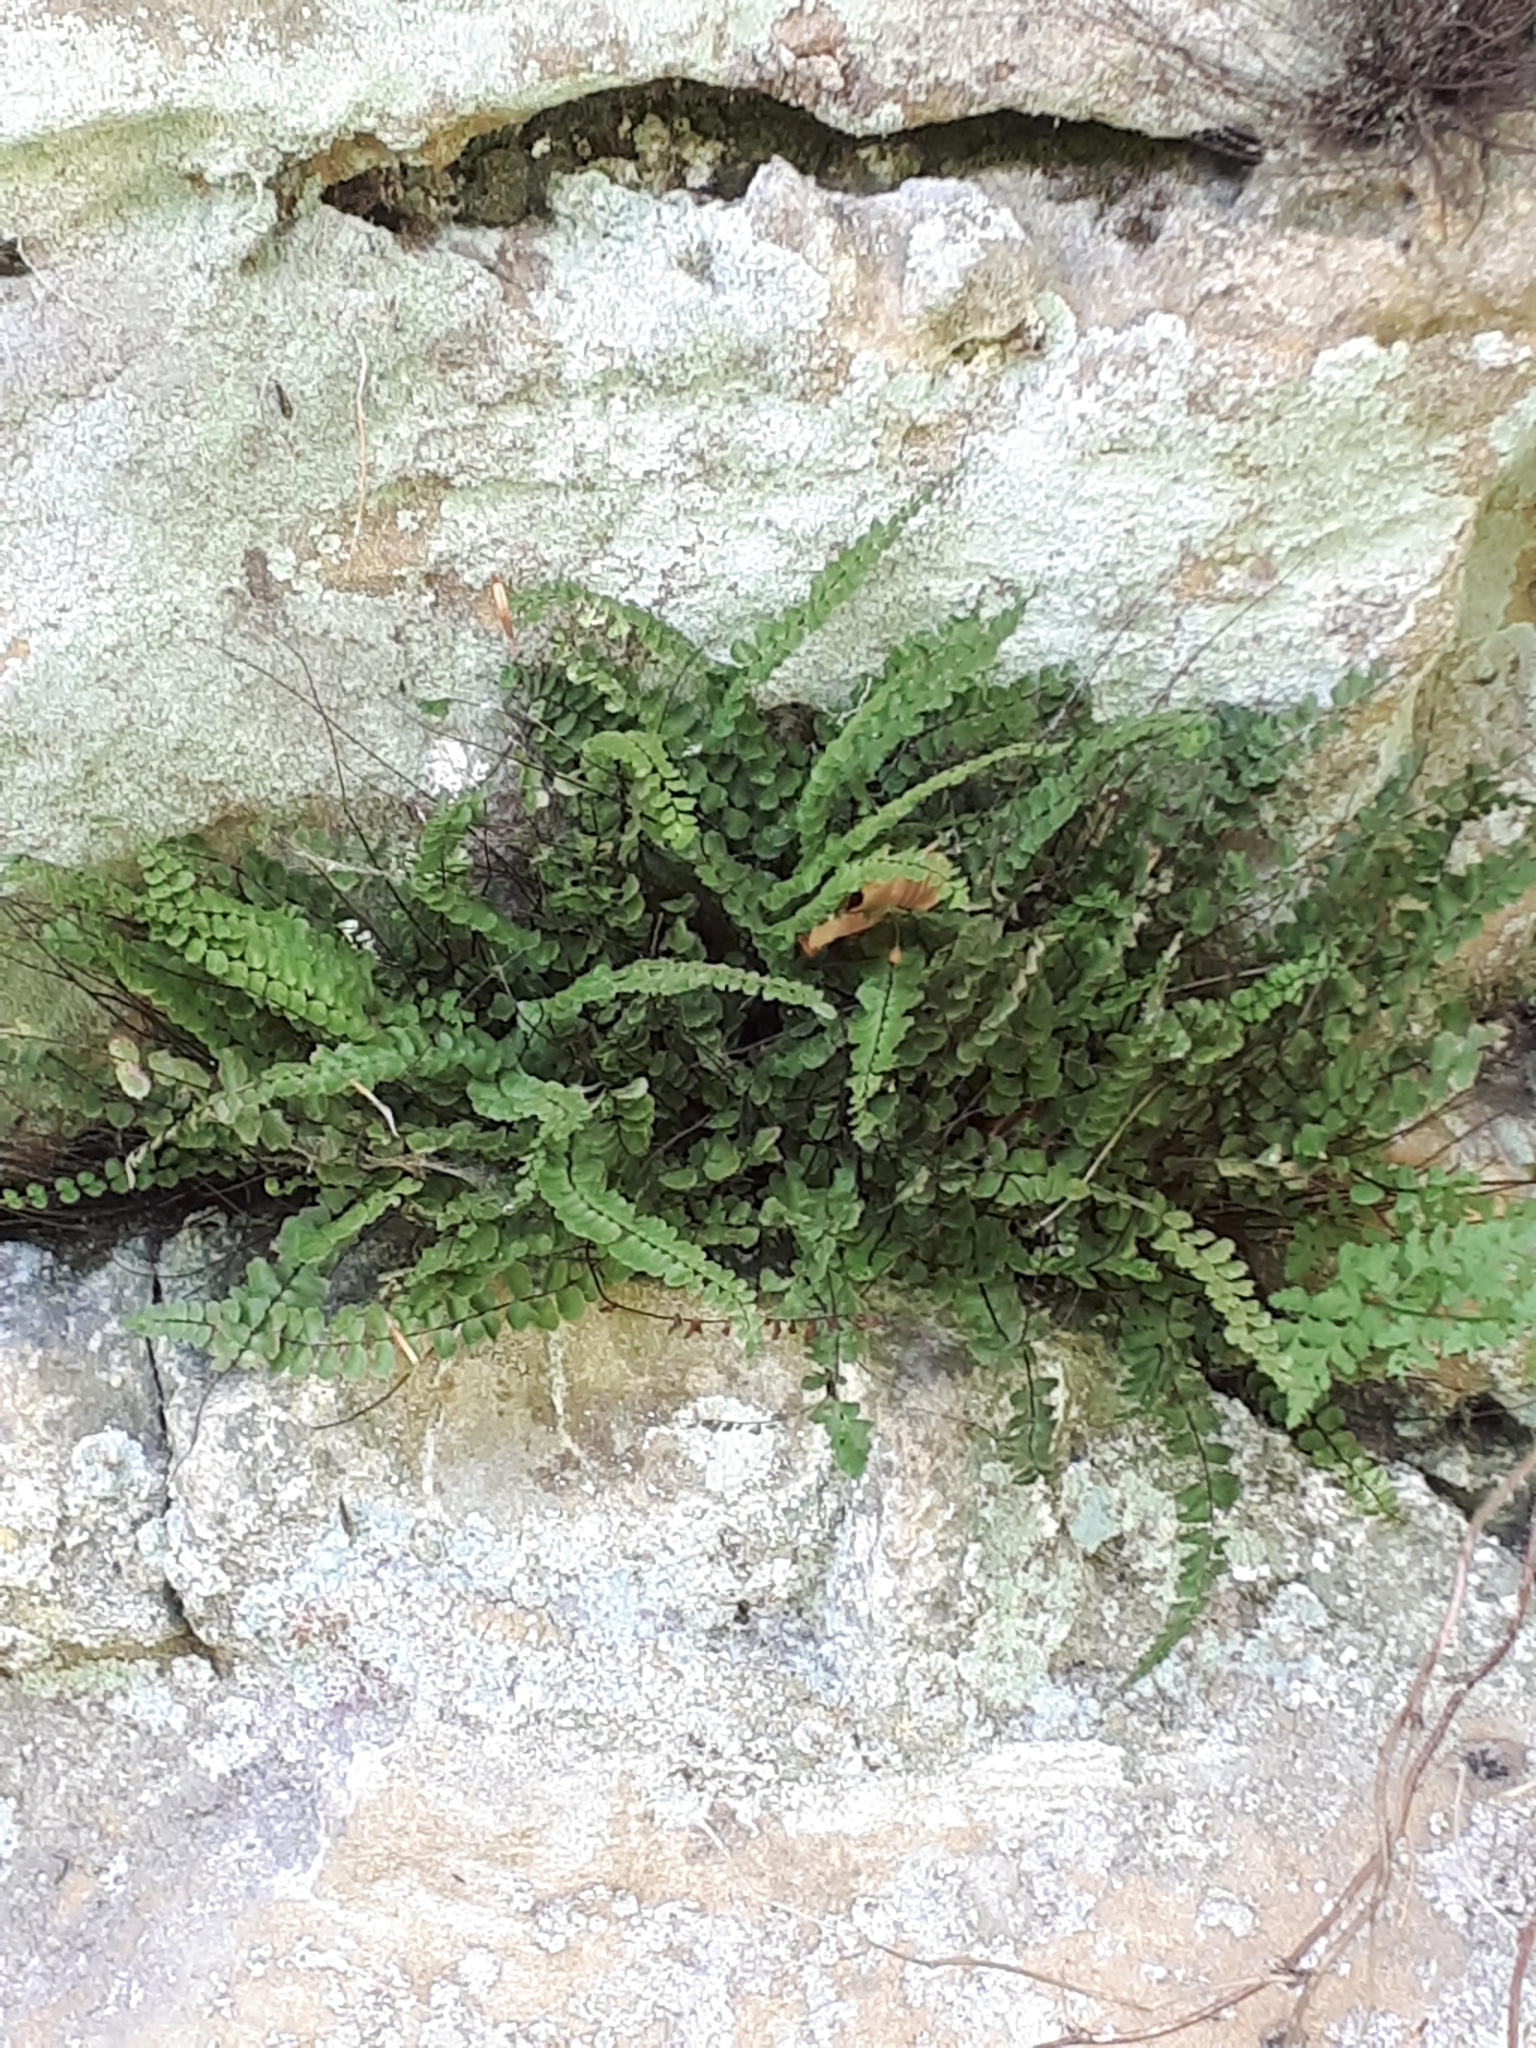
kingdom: Plantae
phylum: Tracheophyta
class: Polypodiopsida
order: Polypodiales
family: Aspleniaceae
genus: Asplenium
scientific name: Asplenium trichomanes
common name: Maidenhair spleenwort
